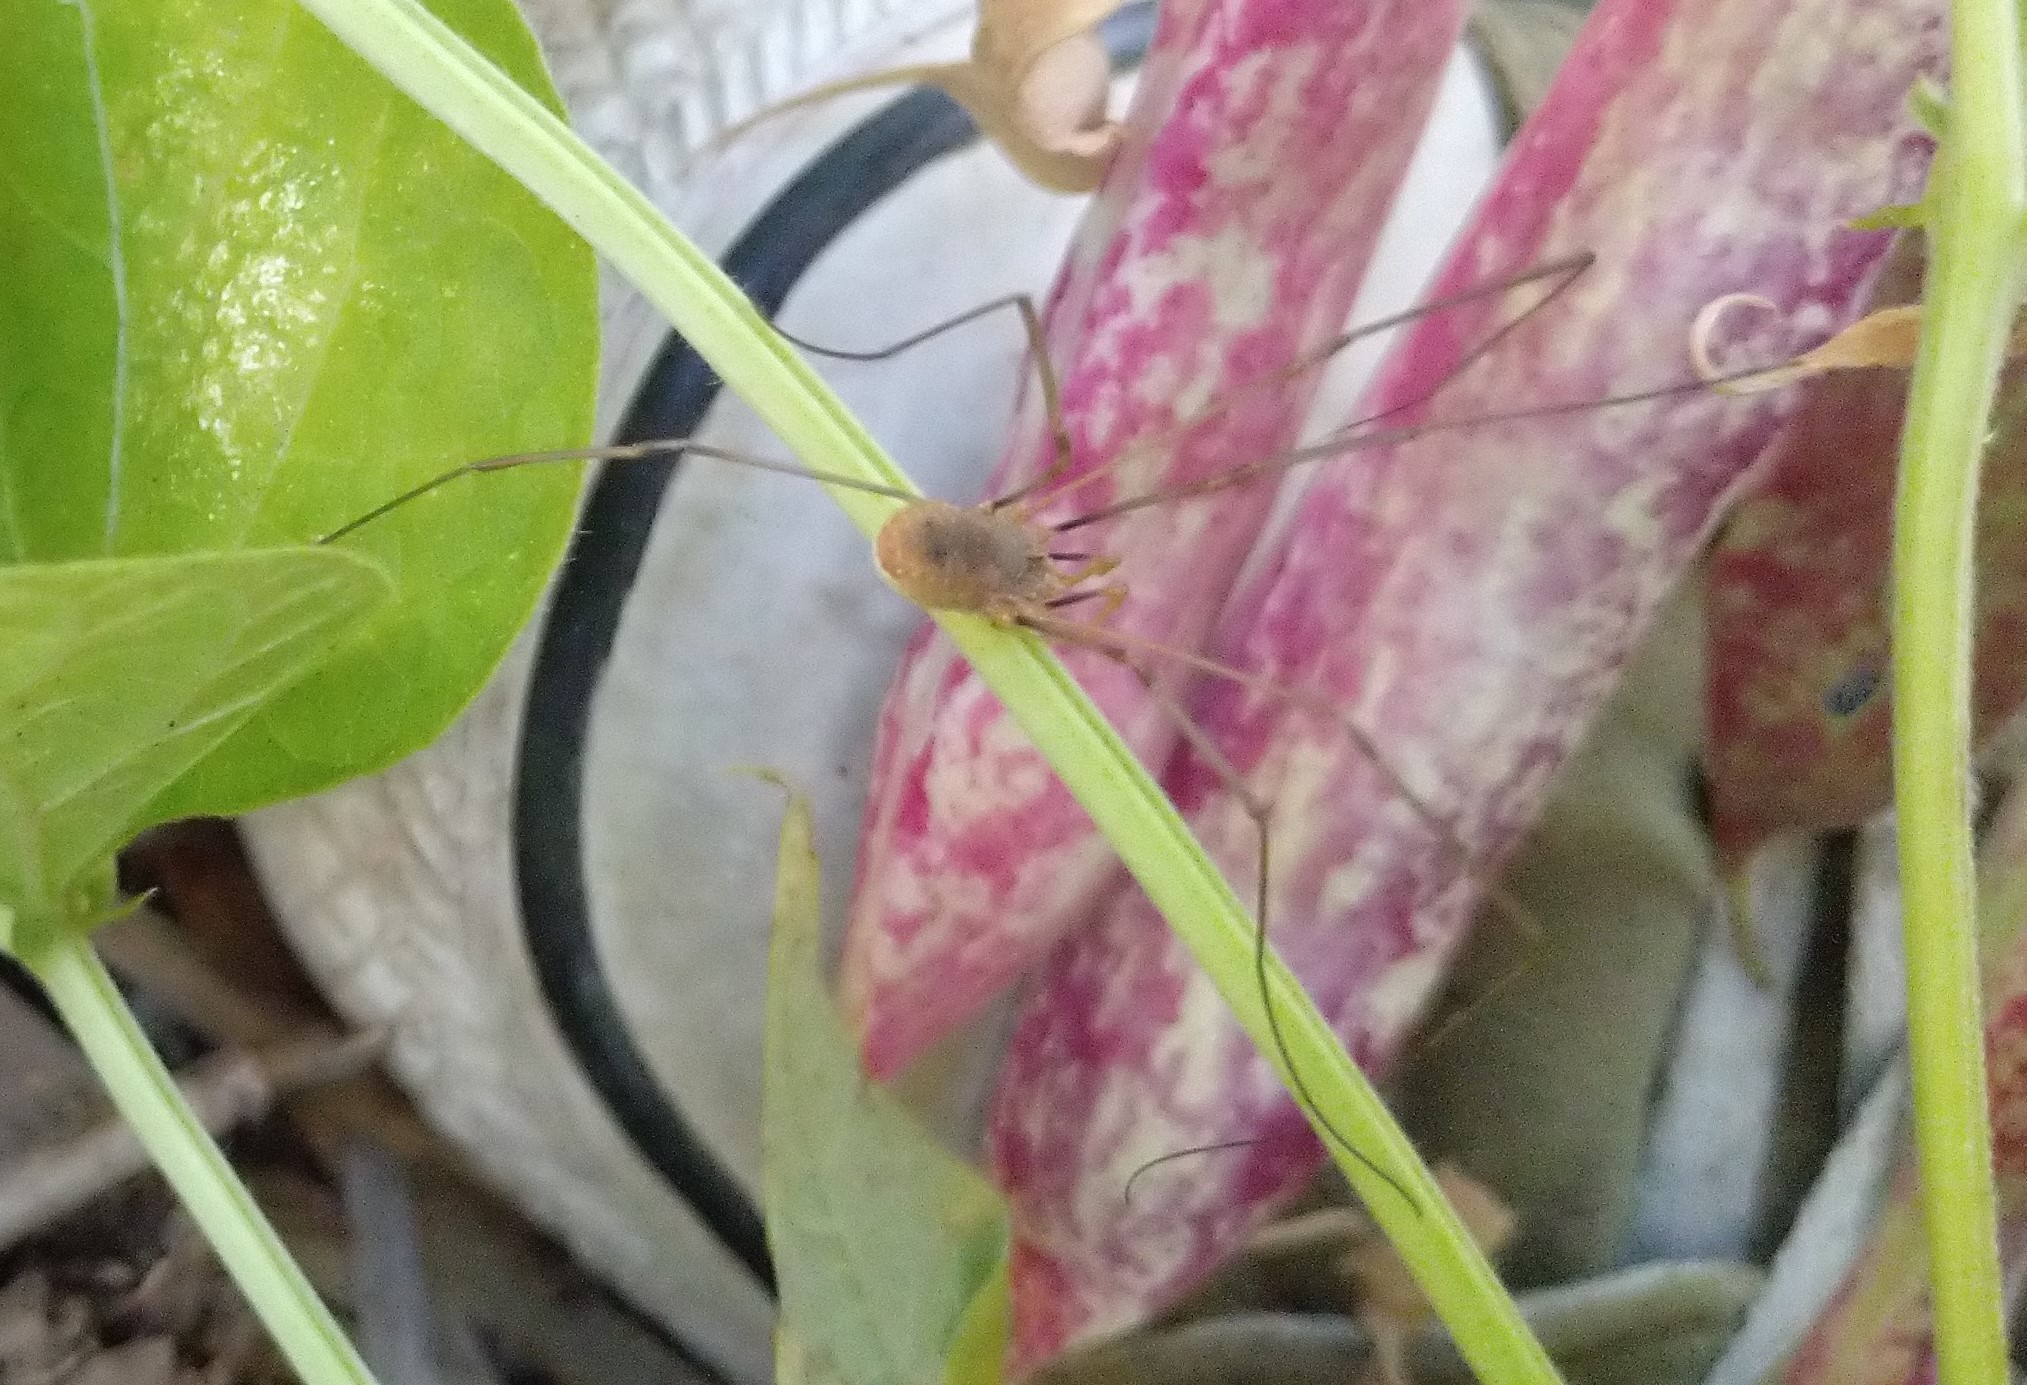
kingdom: Animalia
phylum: Arthropoda
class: Arachnida
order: Opiliones
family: Phalangiidae
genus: Phalangium
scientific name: Phalangium opilio
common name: Daddy longleg
